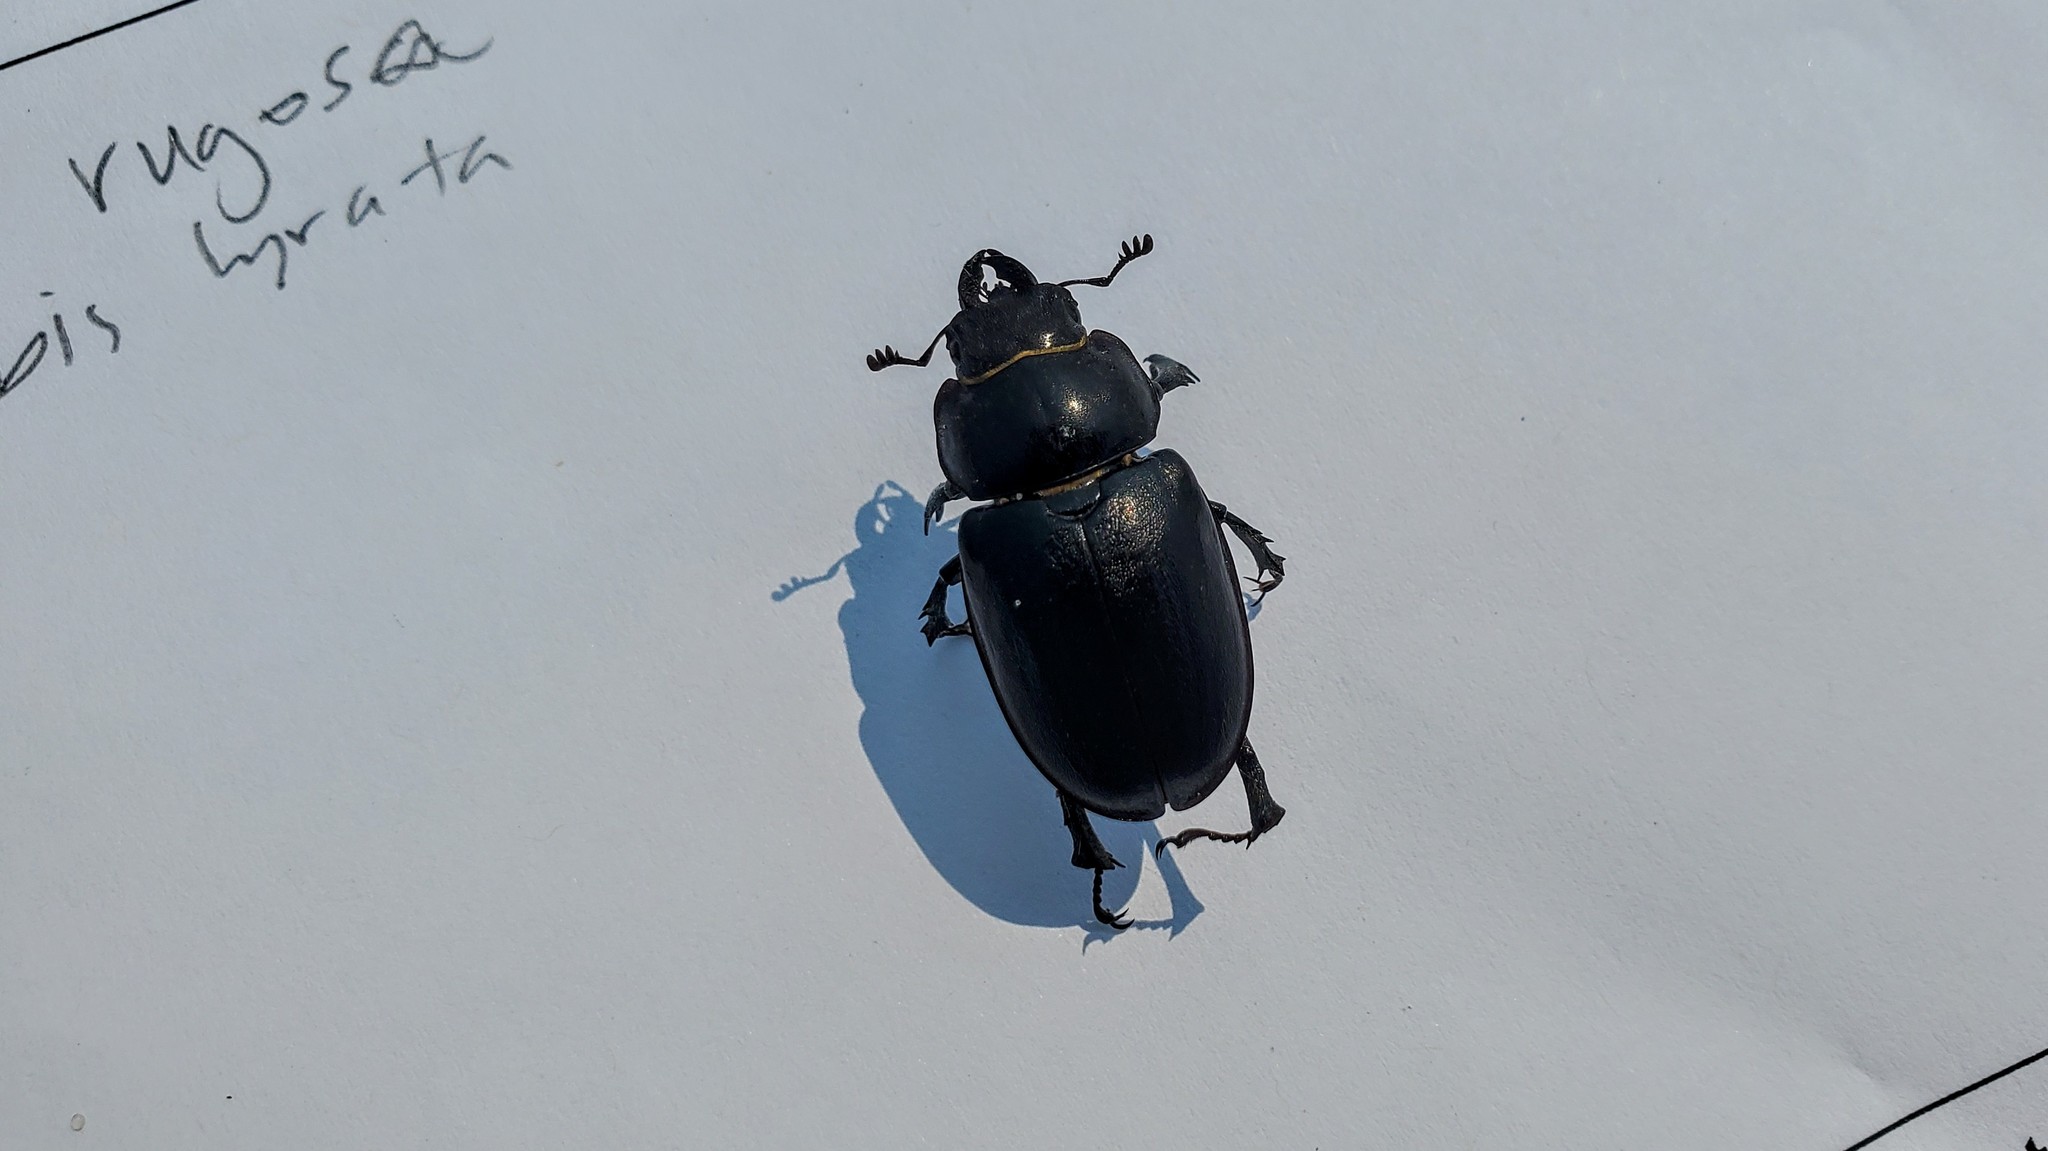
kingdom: Animalia
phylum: Arthropoda
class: Insecta
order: Coleoptera
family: Lucanidae
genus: Lucanus
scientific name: Lucanus placidus
